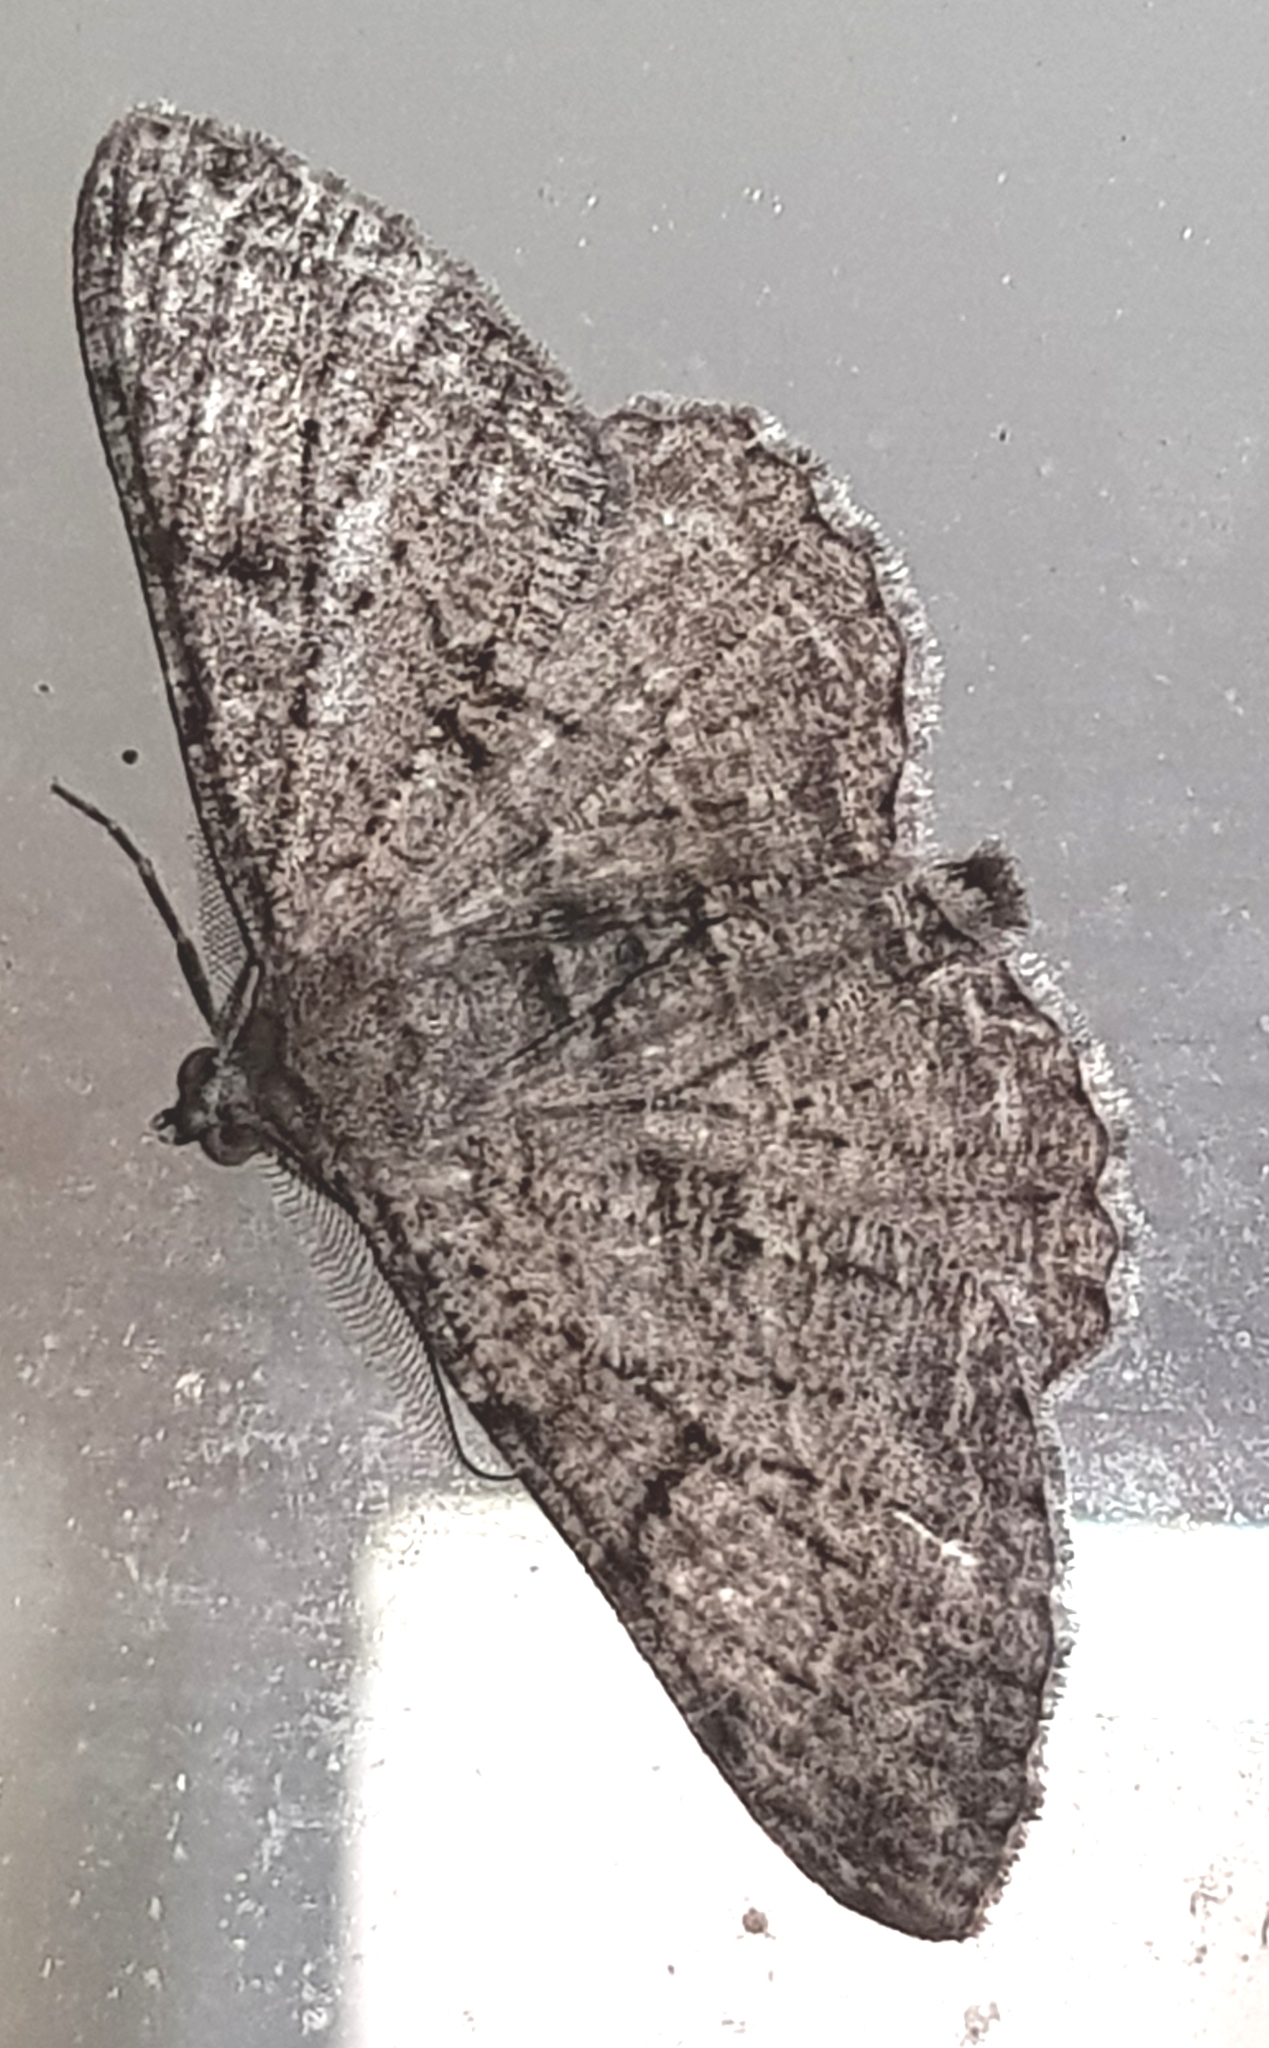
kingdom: Animalia
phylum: Arthropoda
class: Insecta
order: Lepidoptera
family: Geometridae
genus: Peribatodes
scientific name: Peribatodes rhomboidaria
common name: Willow beauty
